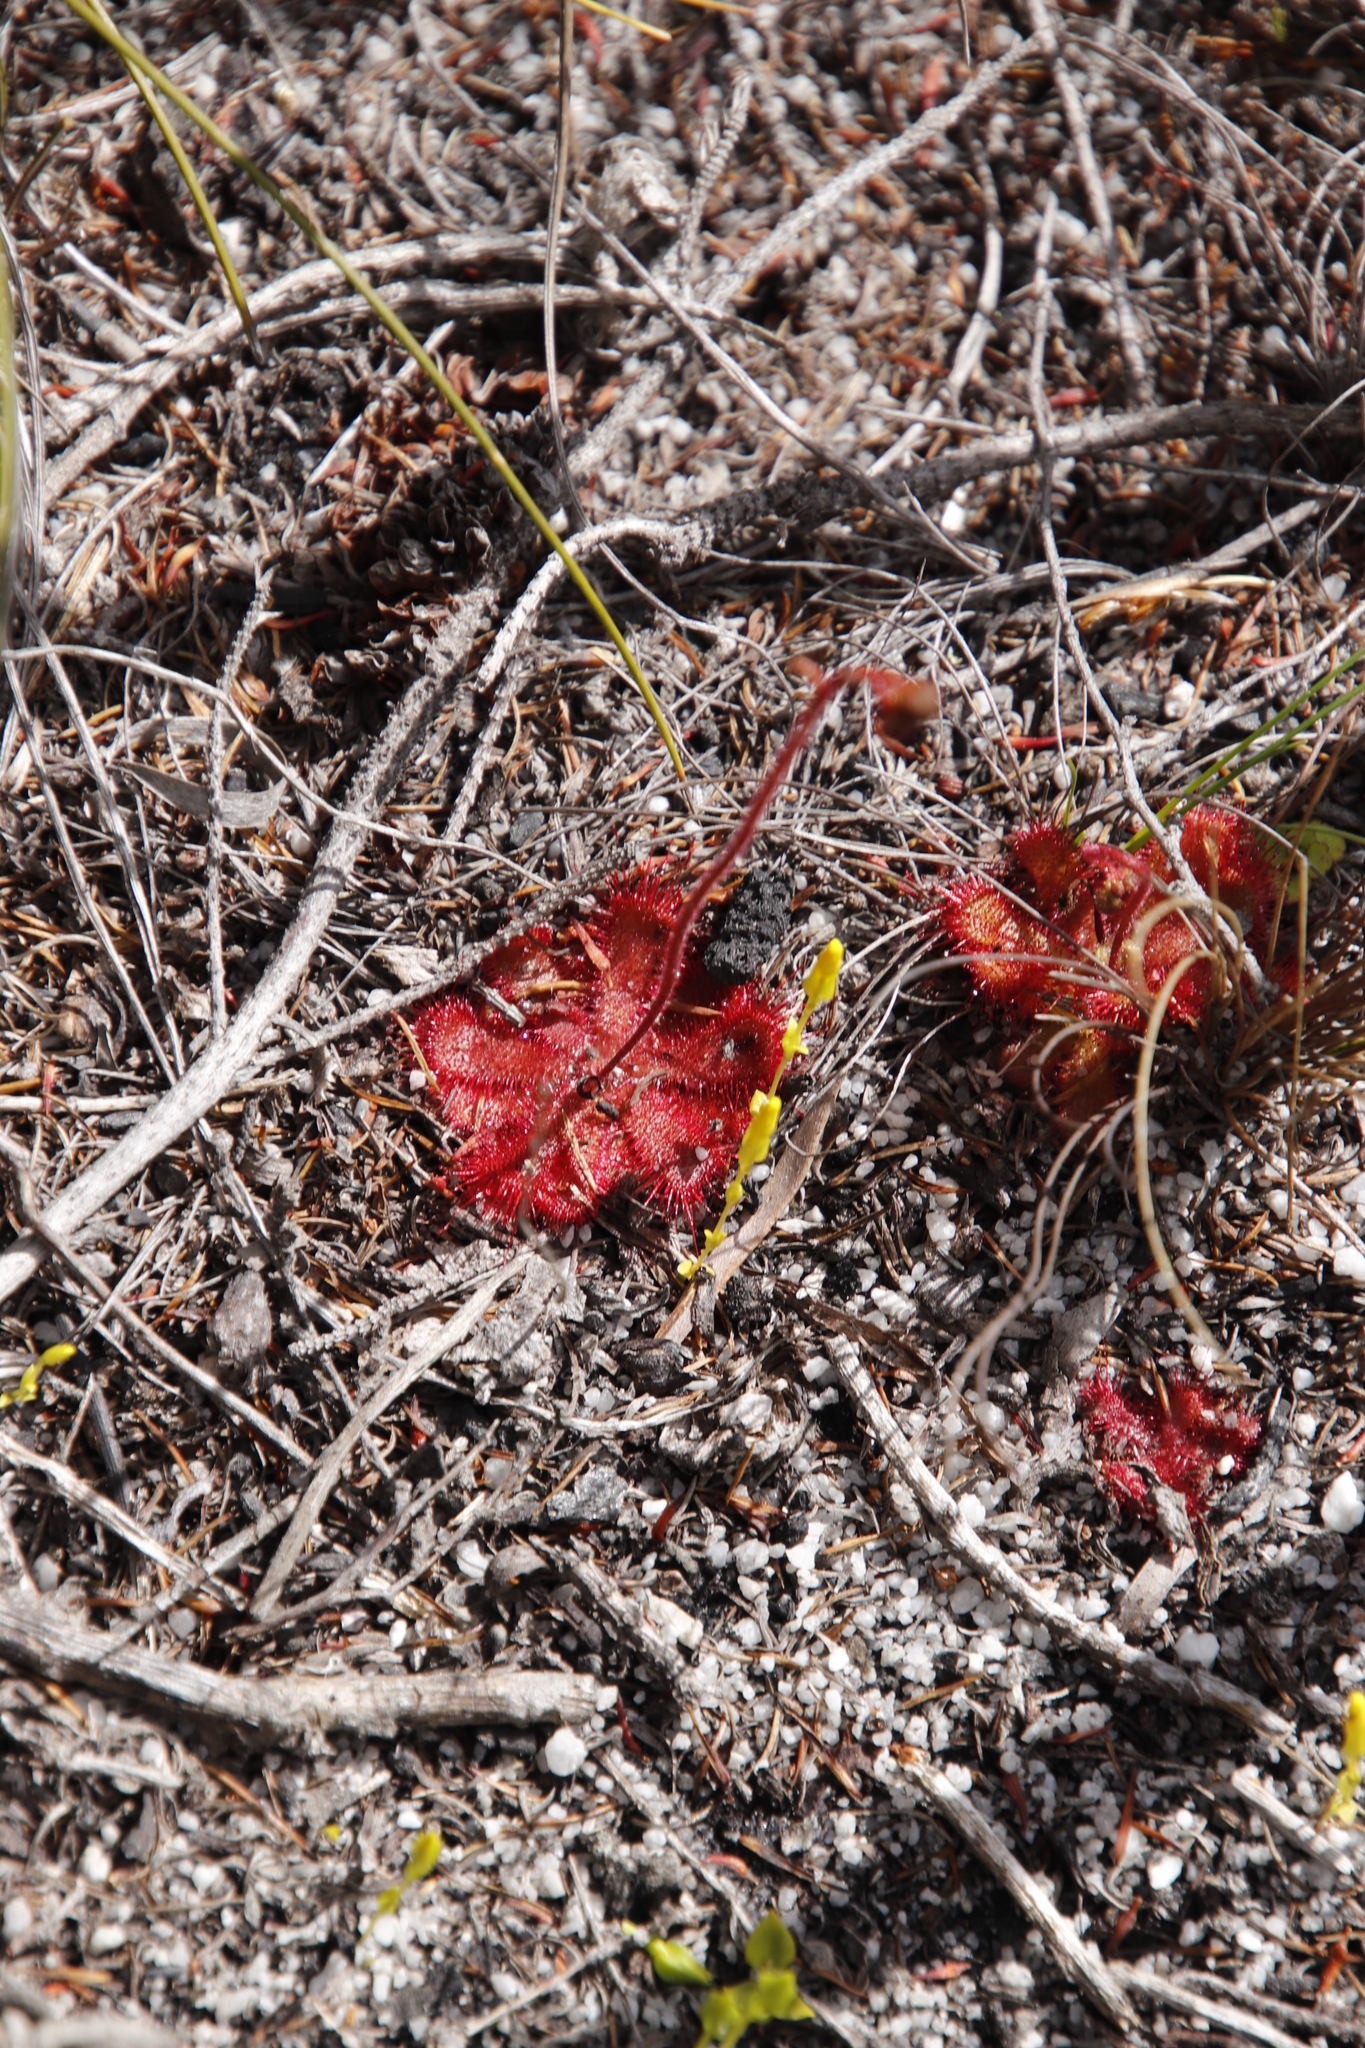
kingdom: Plantae
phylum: Tracheophyta
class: Magnoliopsida
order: Caryophyllales
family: Droseraceae
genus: Drosera
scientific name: Drosera trinervia
